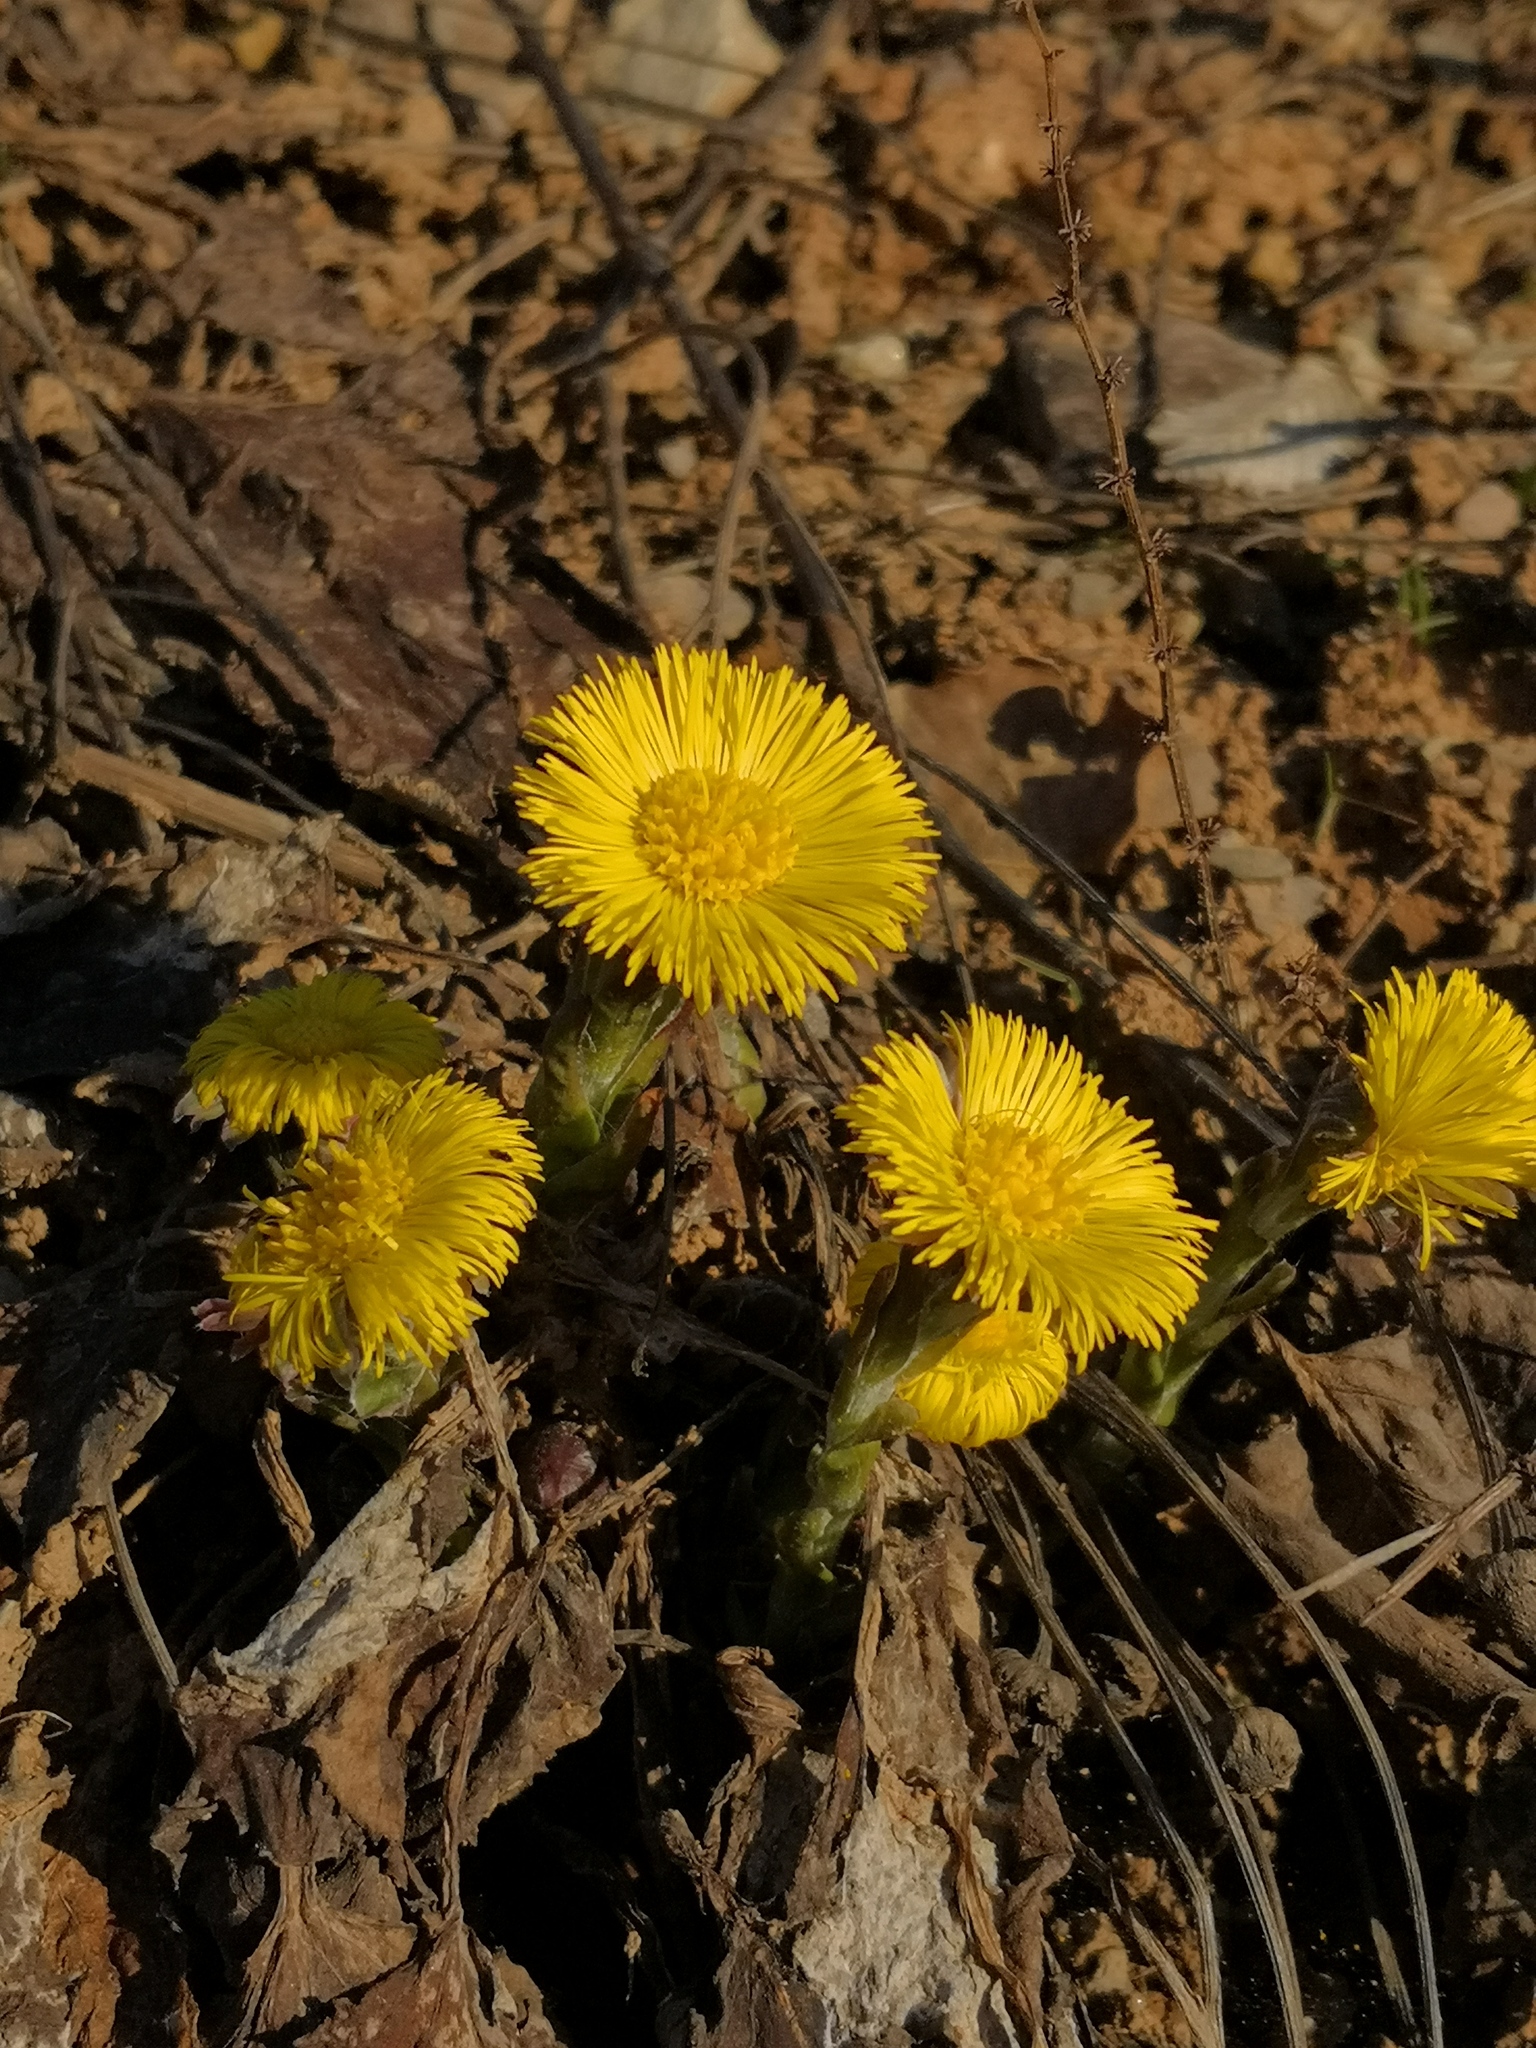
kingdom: Plantae
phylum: Tracheophyta
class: Magnoliopsida
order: Asterales
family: Asteraceae
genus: Tussilago
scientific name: Tussilago farfara
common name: Coltsfoot
